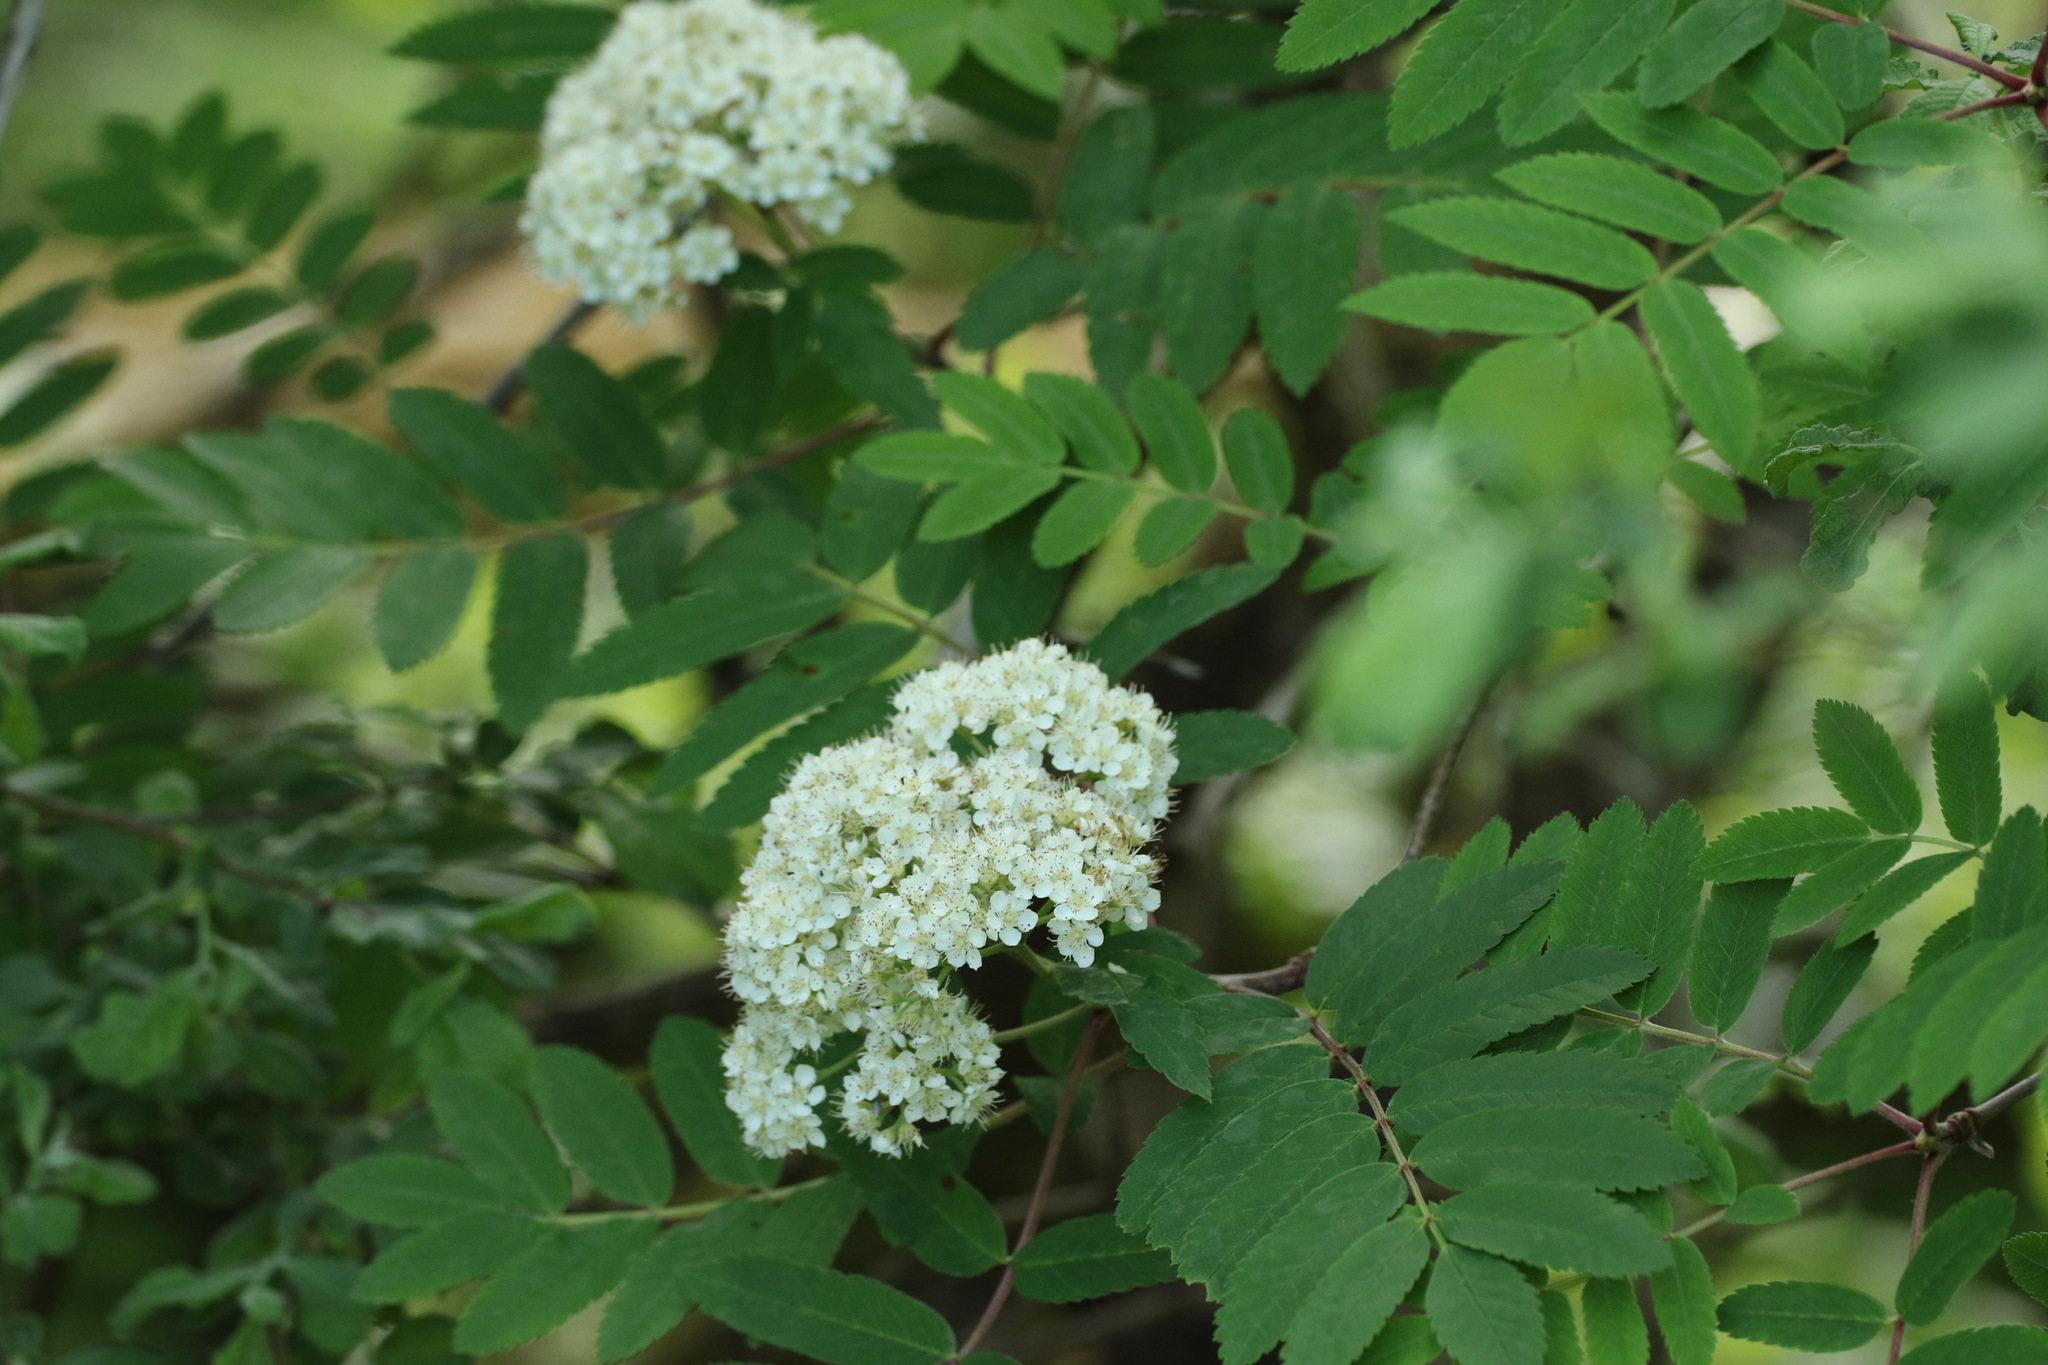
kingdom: Plantae
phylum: Tracheophyta
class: Magnoliopsida
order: Rosales
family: Rosaceae
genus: Sorbus
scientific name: Sorbus aucuparia
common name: Rowan
